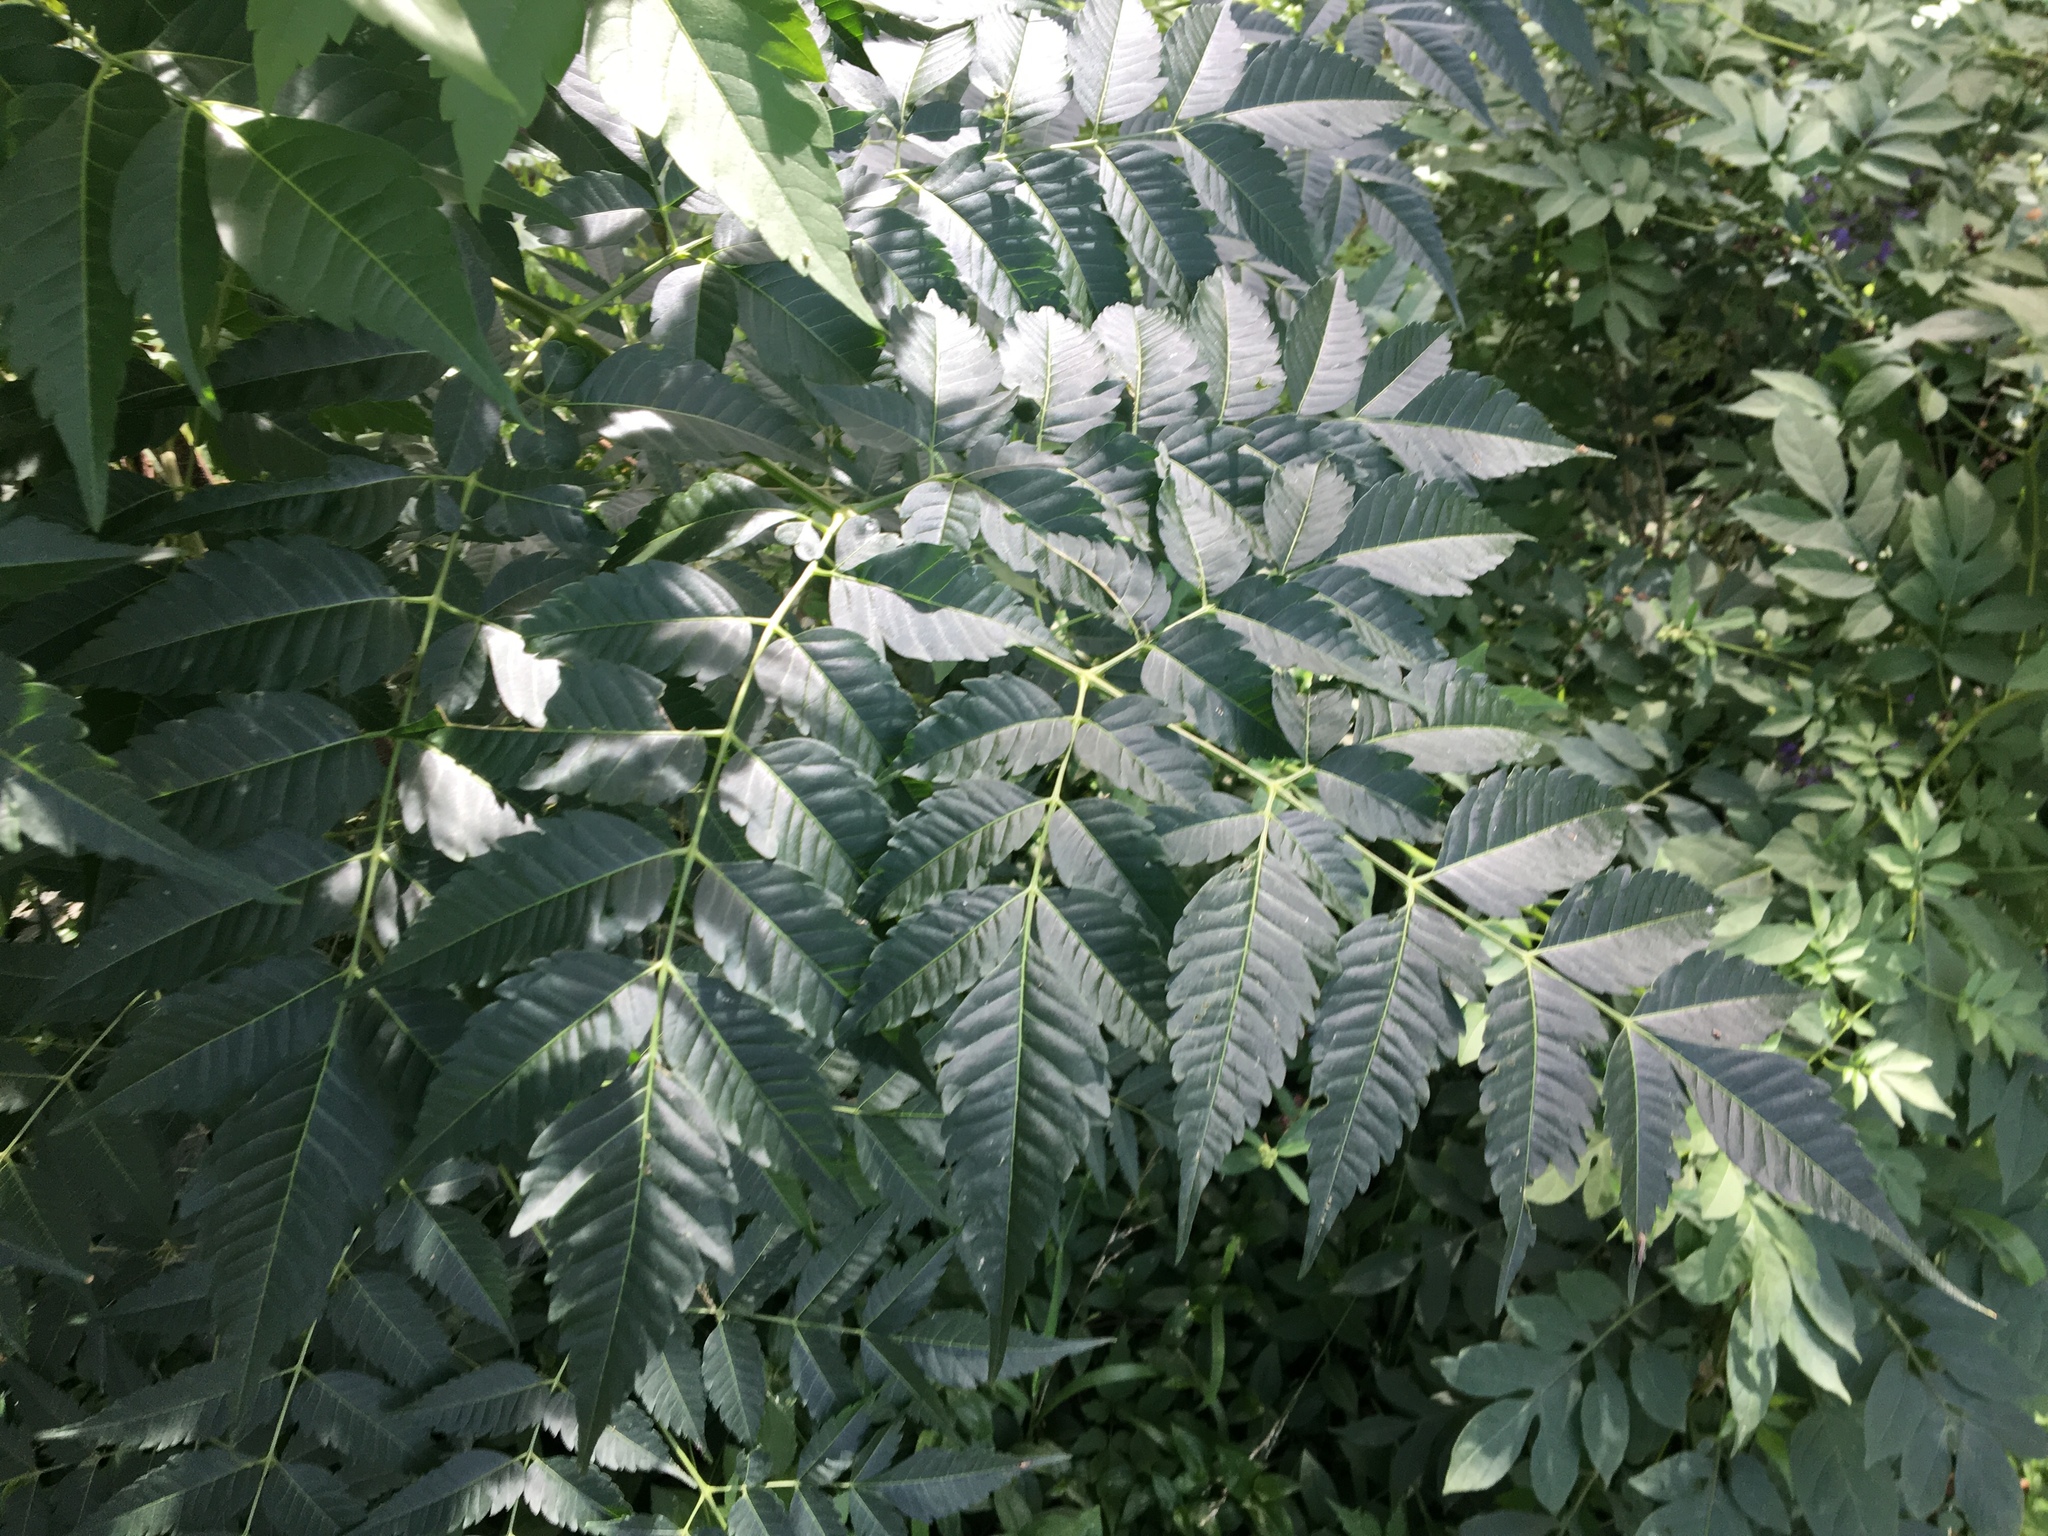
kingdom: Plantae
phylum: Tracheophyta
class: Magnoliopsida
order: Sapindales
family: Meliaceae
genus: Melia
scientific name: Melia azedarach
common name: Chinaberrytree
